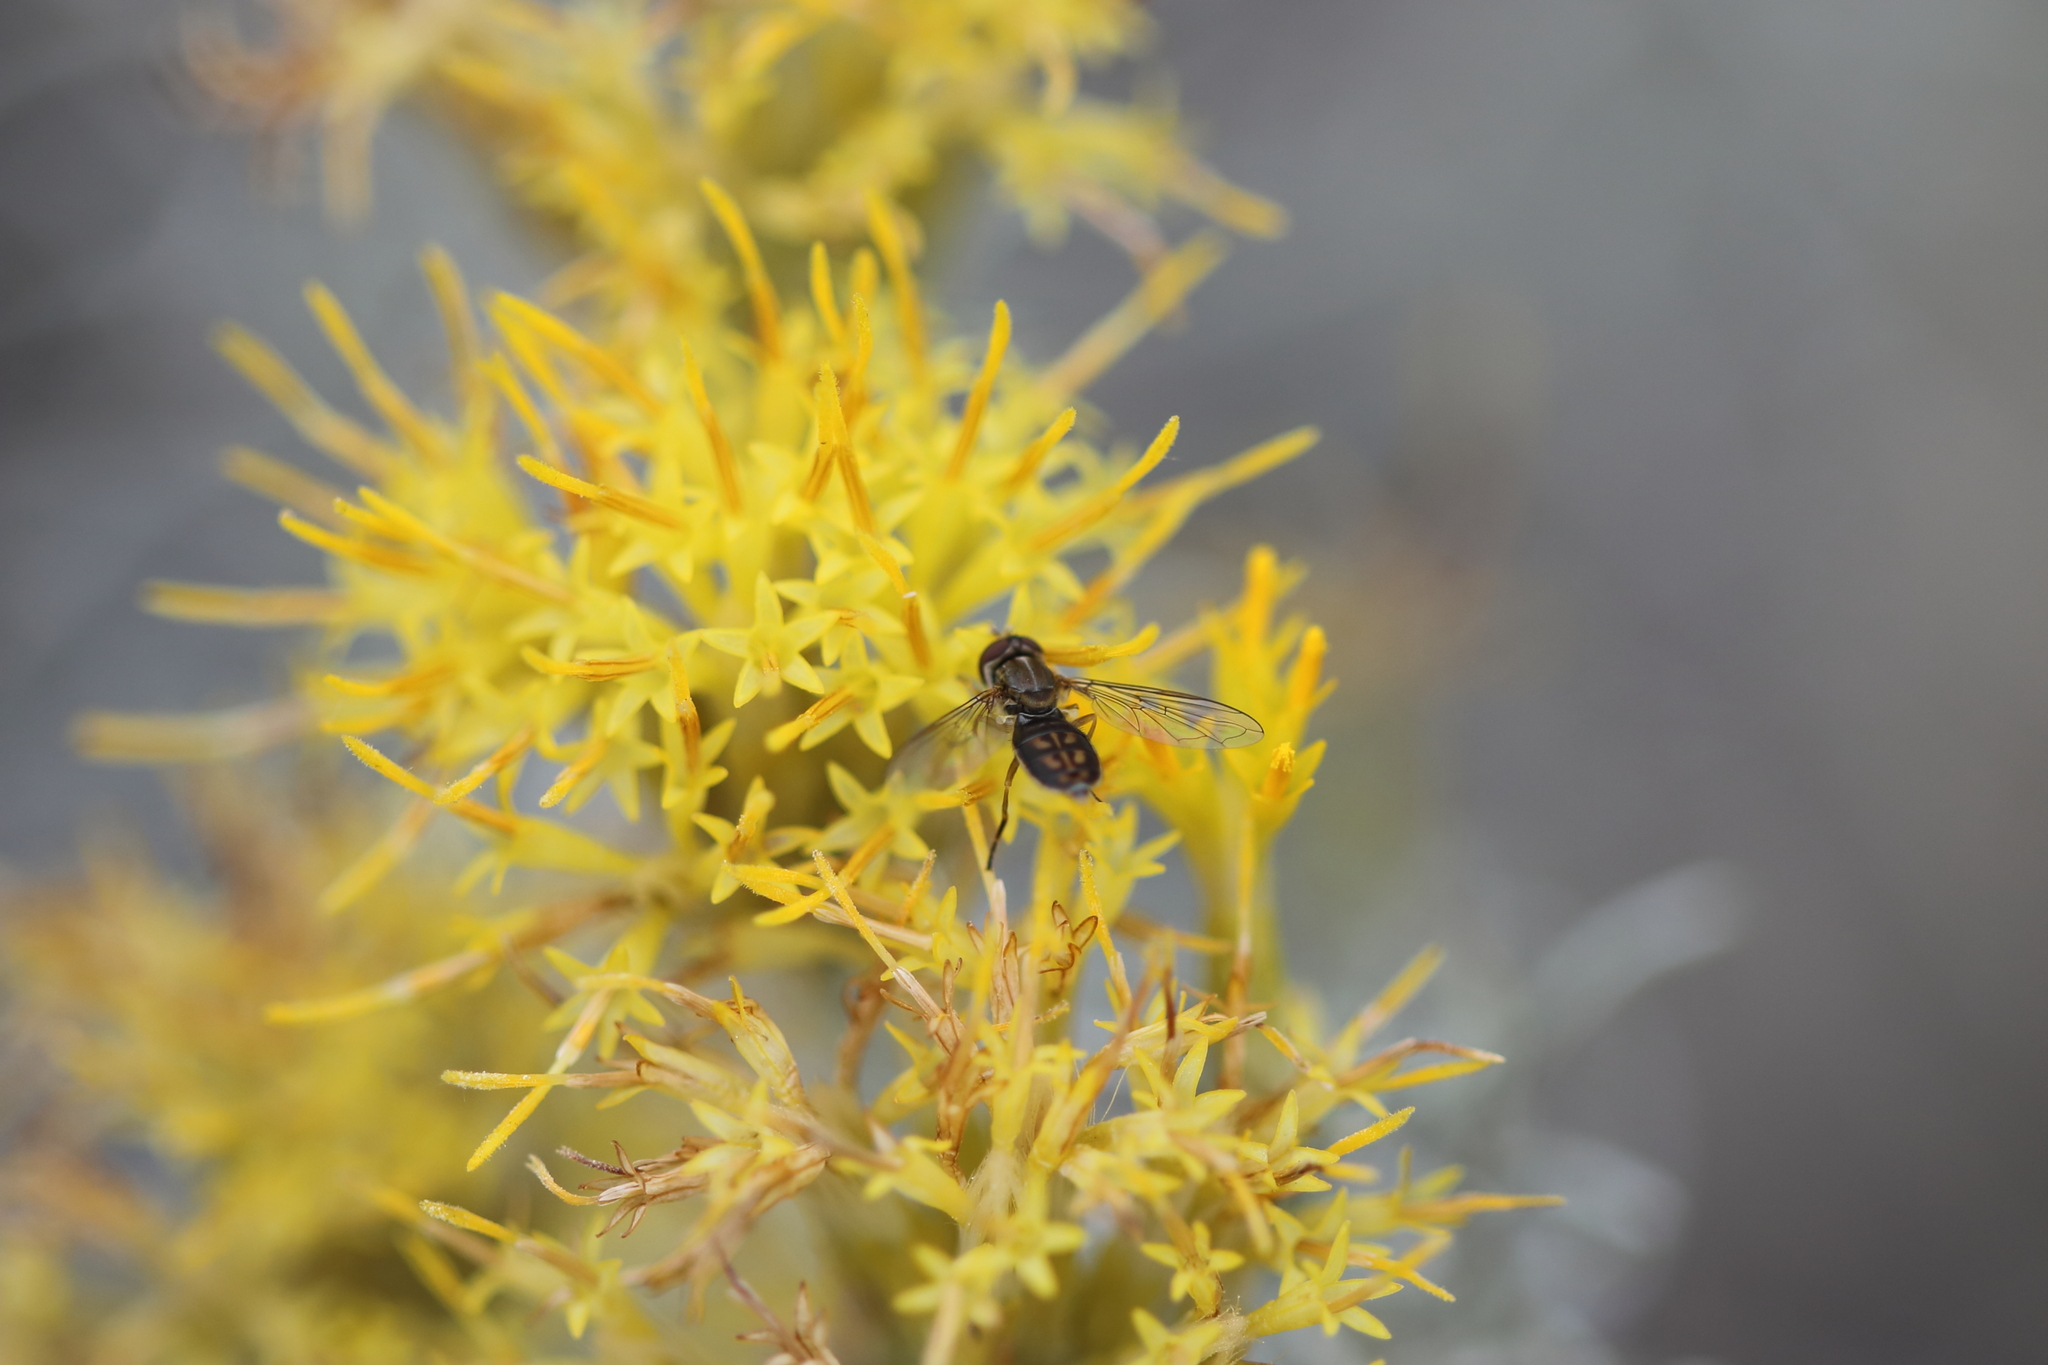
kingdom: Animalia
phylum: Arthropoda
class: Insecta
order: Diptera
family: Syrphidae
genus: Toxomerus
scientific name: Toxomerus marginatus
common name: Syrphid fly
